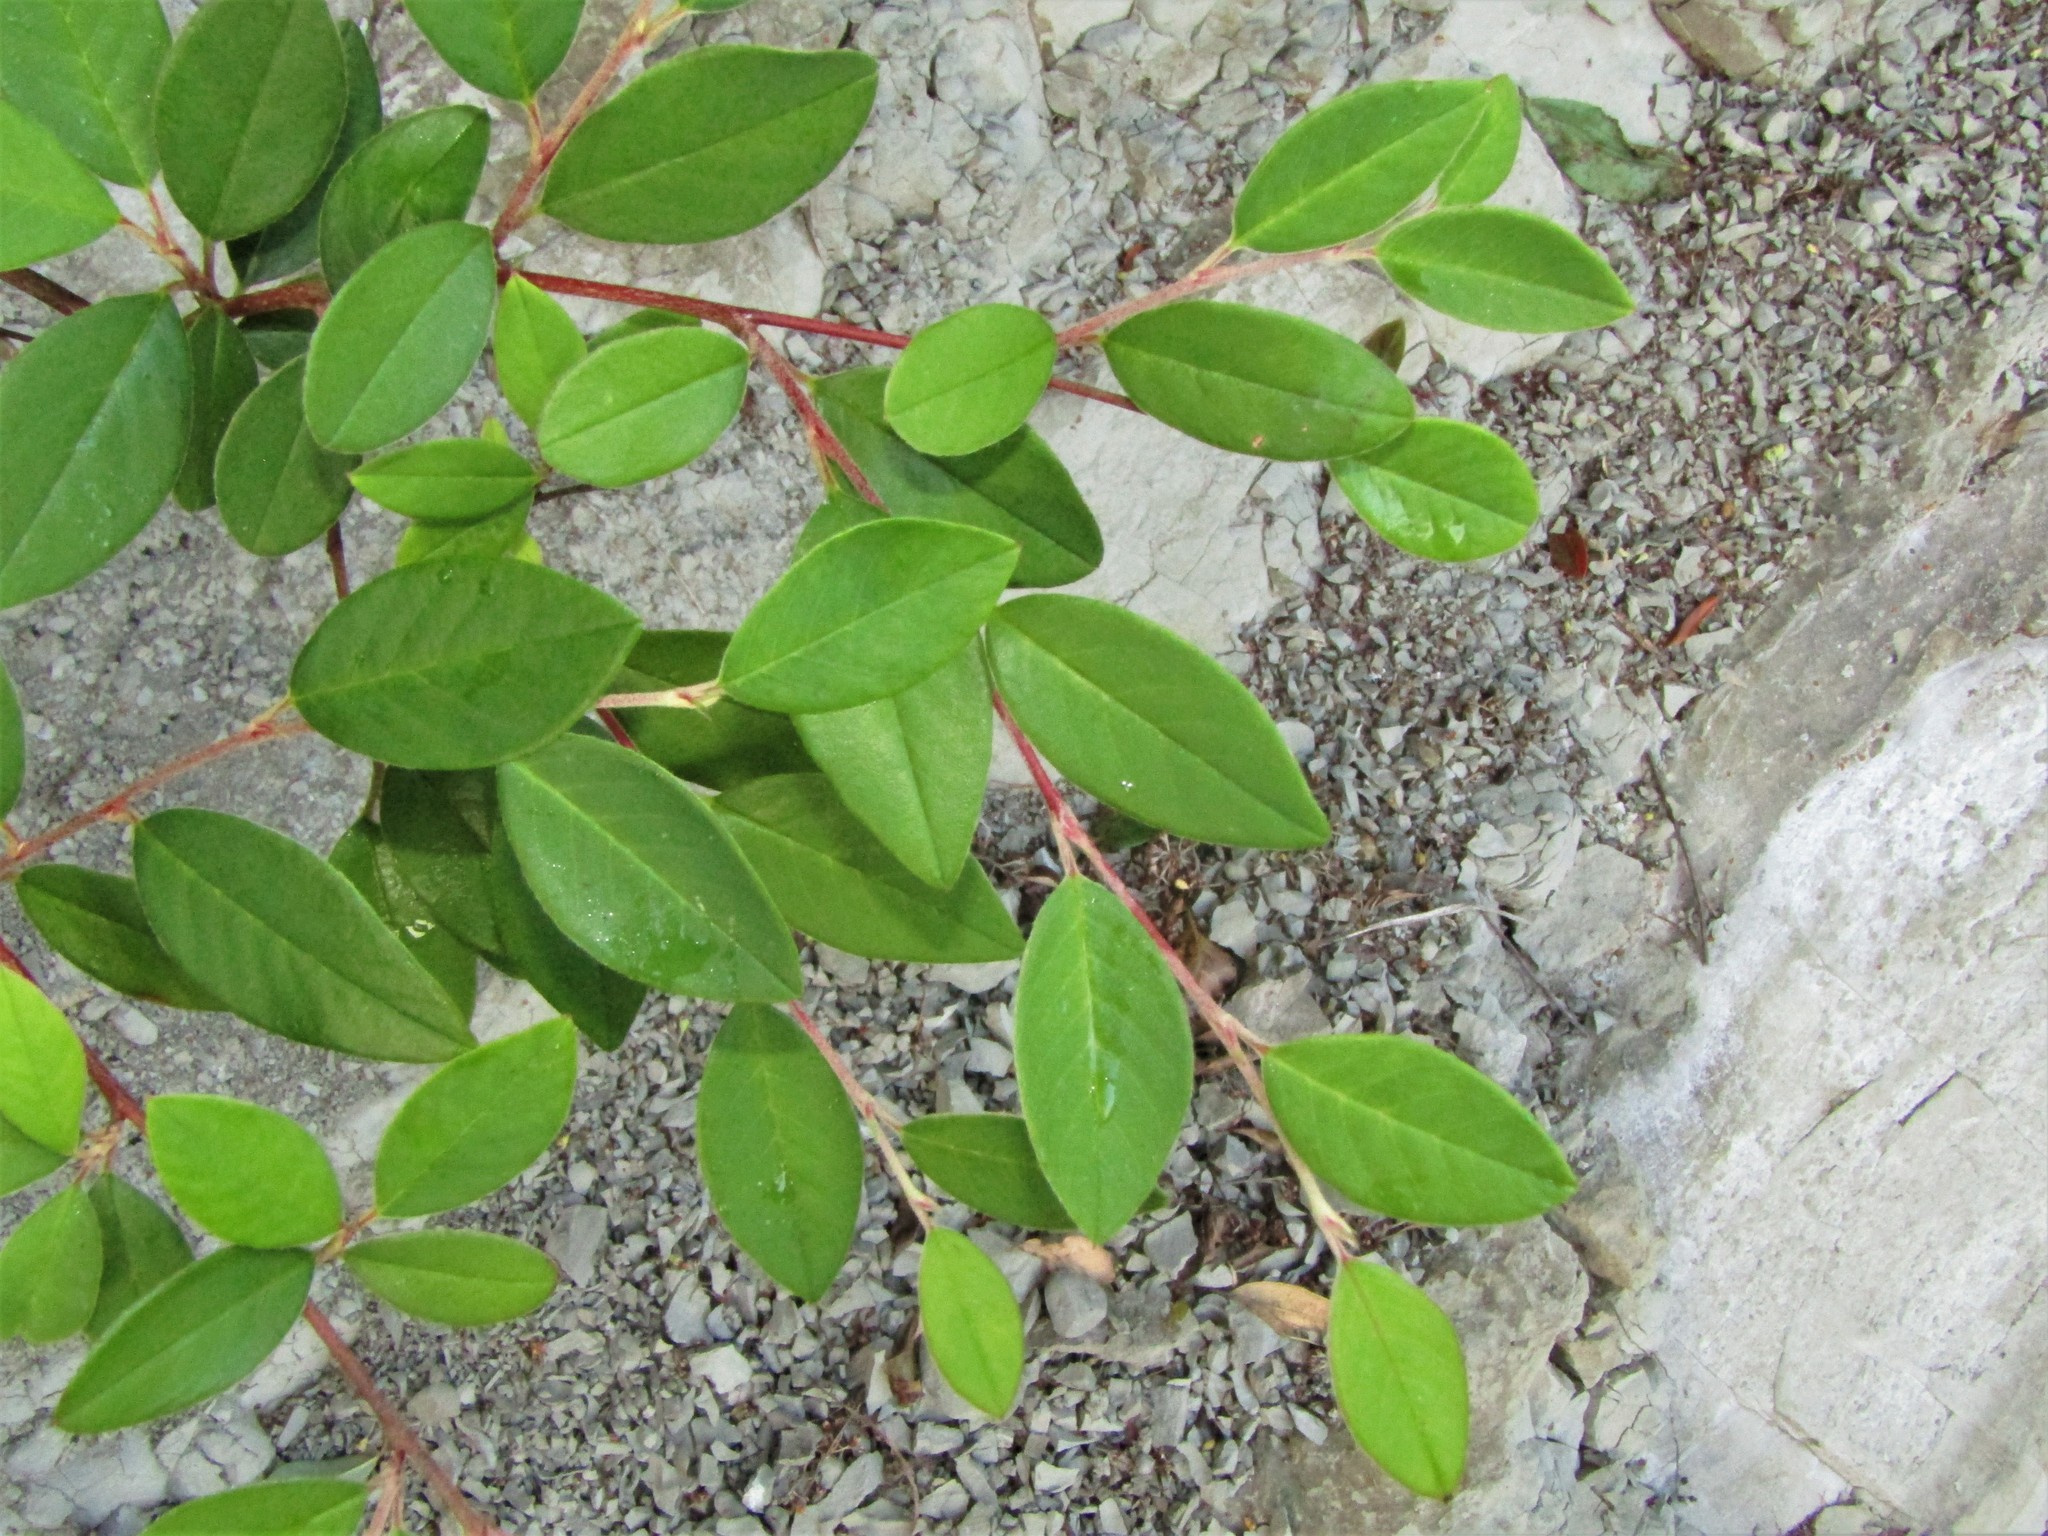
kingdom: Plantae
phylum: Tracheophyta
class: Magnoliopsida
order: Rosales
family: Rosaceae
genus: Cotoneaster
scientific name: Cotoneaster glaucophyllus
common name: Glaucous cotoneaster
